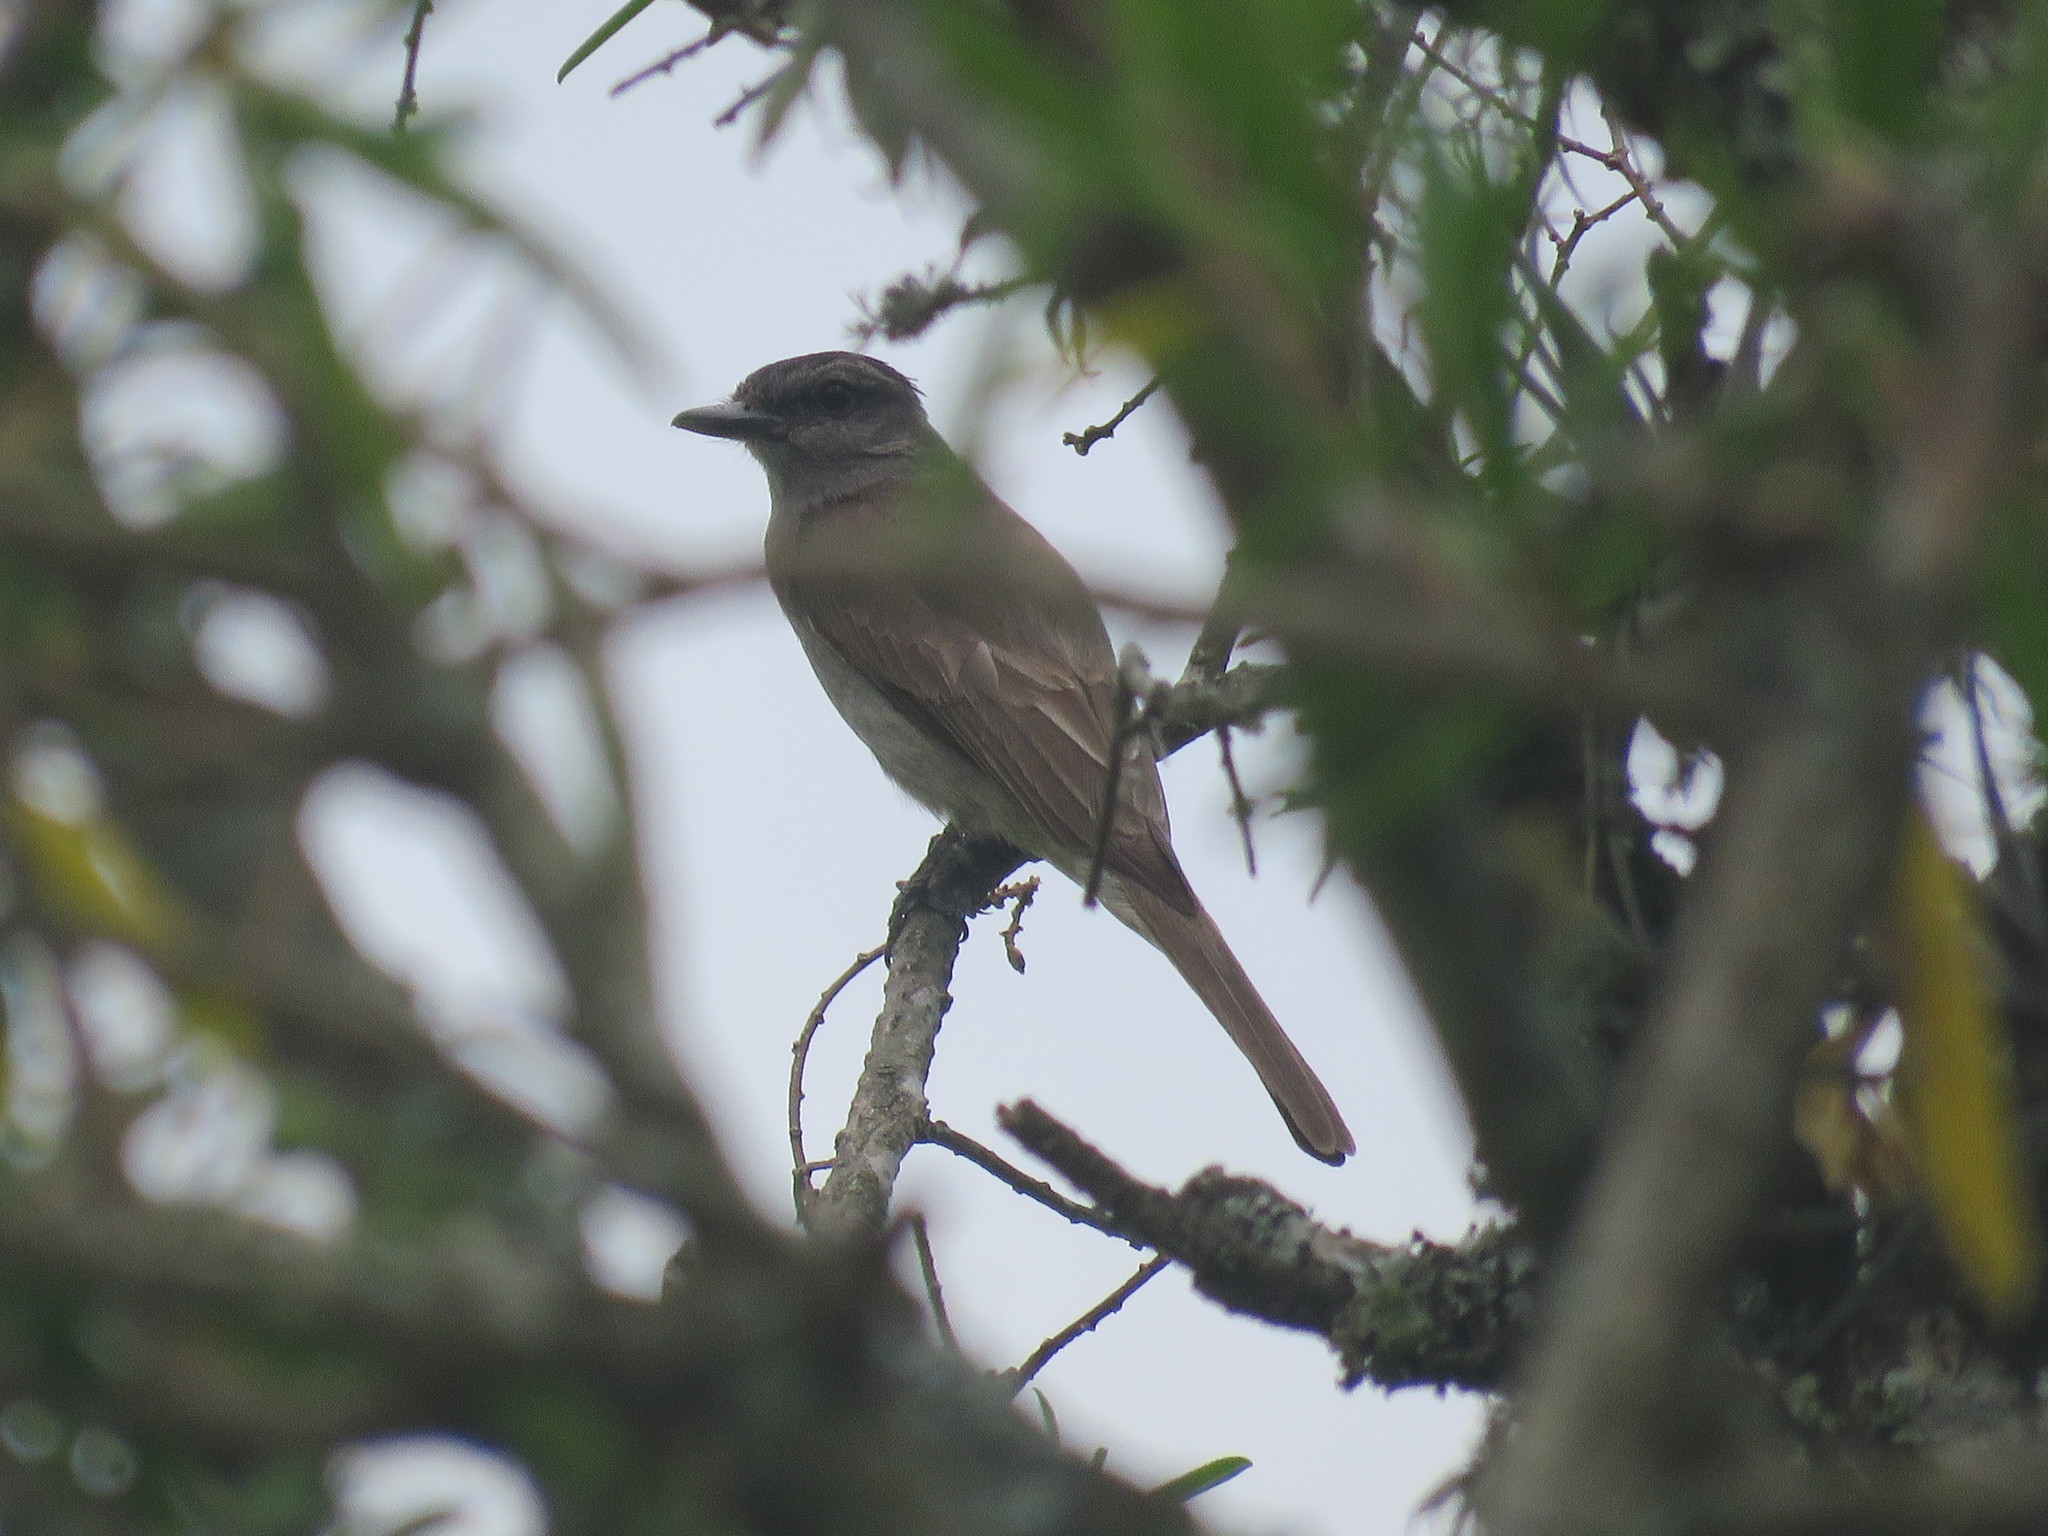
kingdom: Animalia
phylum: Chordata
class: Aves
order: Passeriformes
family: Tyrannidae
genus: Empidonomus
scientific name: Empidonomus aurantioatrocristatus
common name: Crowned slaty flycatcher
